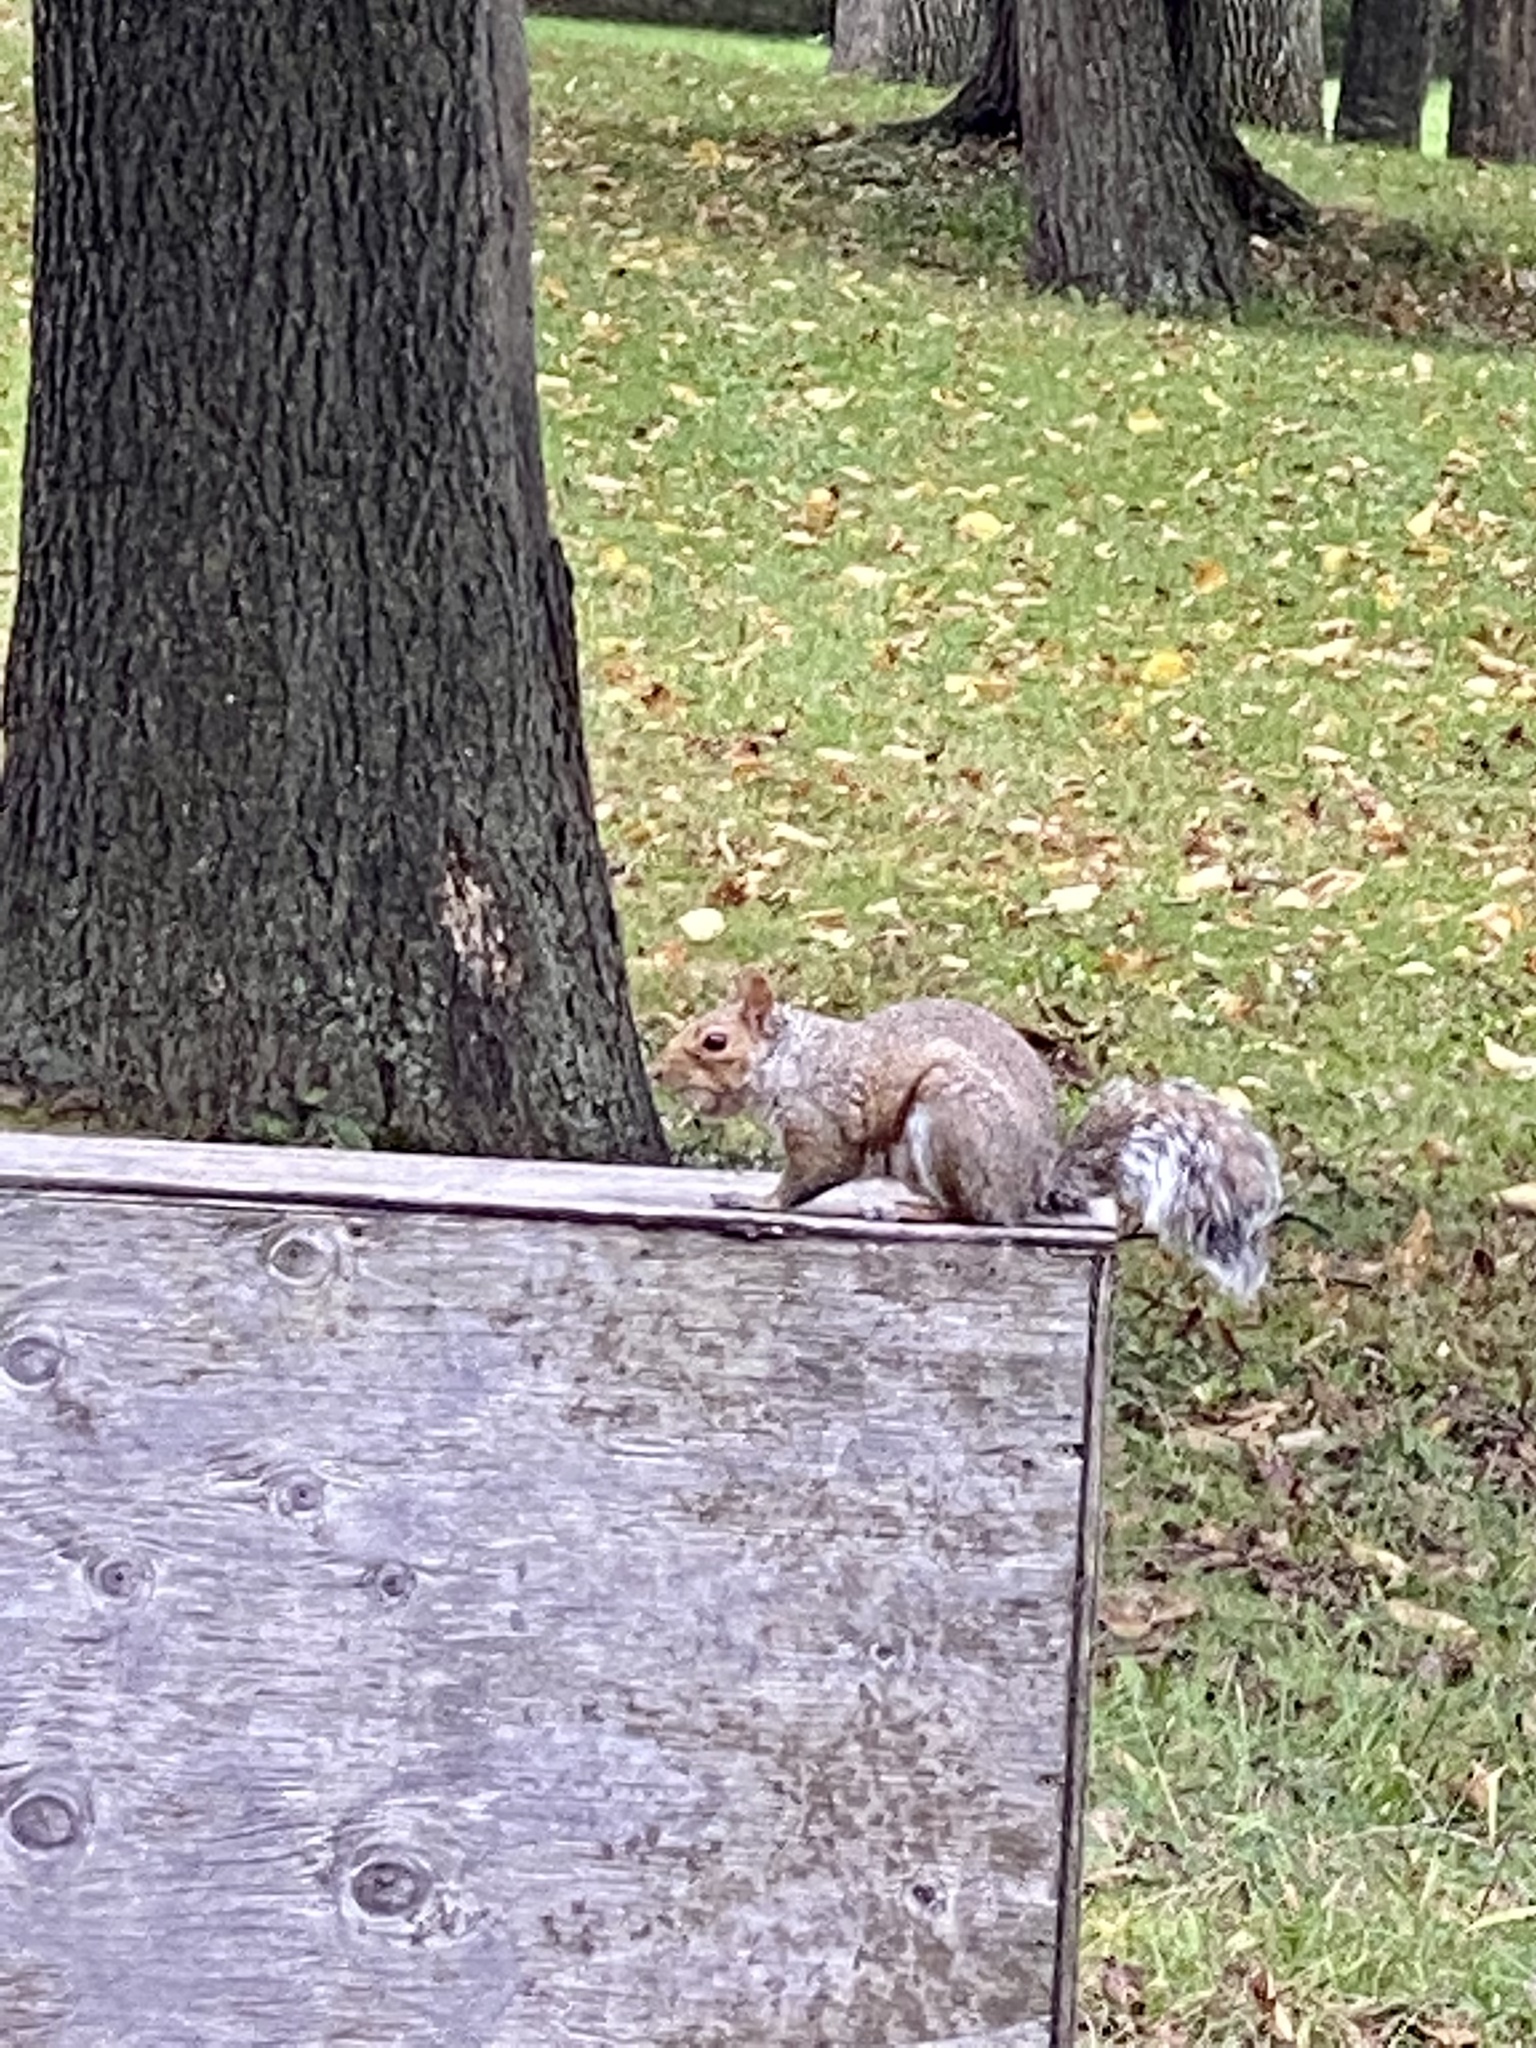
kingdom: Animalia
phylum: Chordata
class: Mammalia
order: Rodentia
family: Sciuridae
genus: Sciurus
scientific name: Sciurus carolinensis
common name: Eastern gray squirrel
